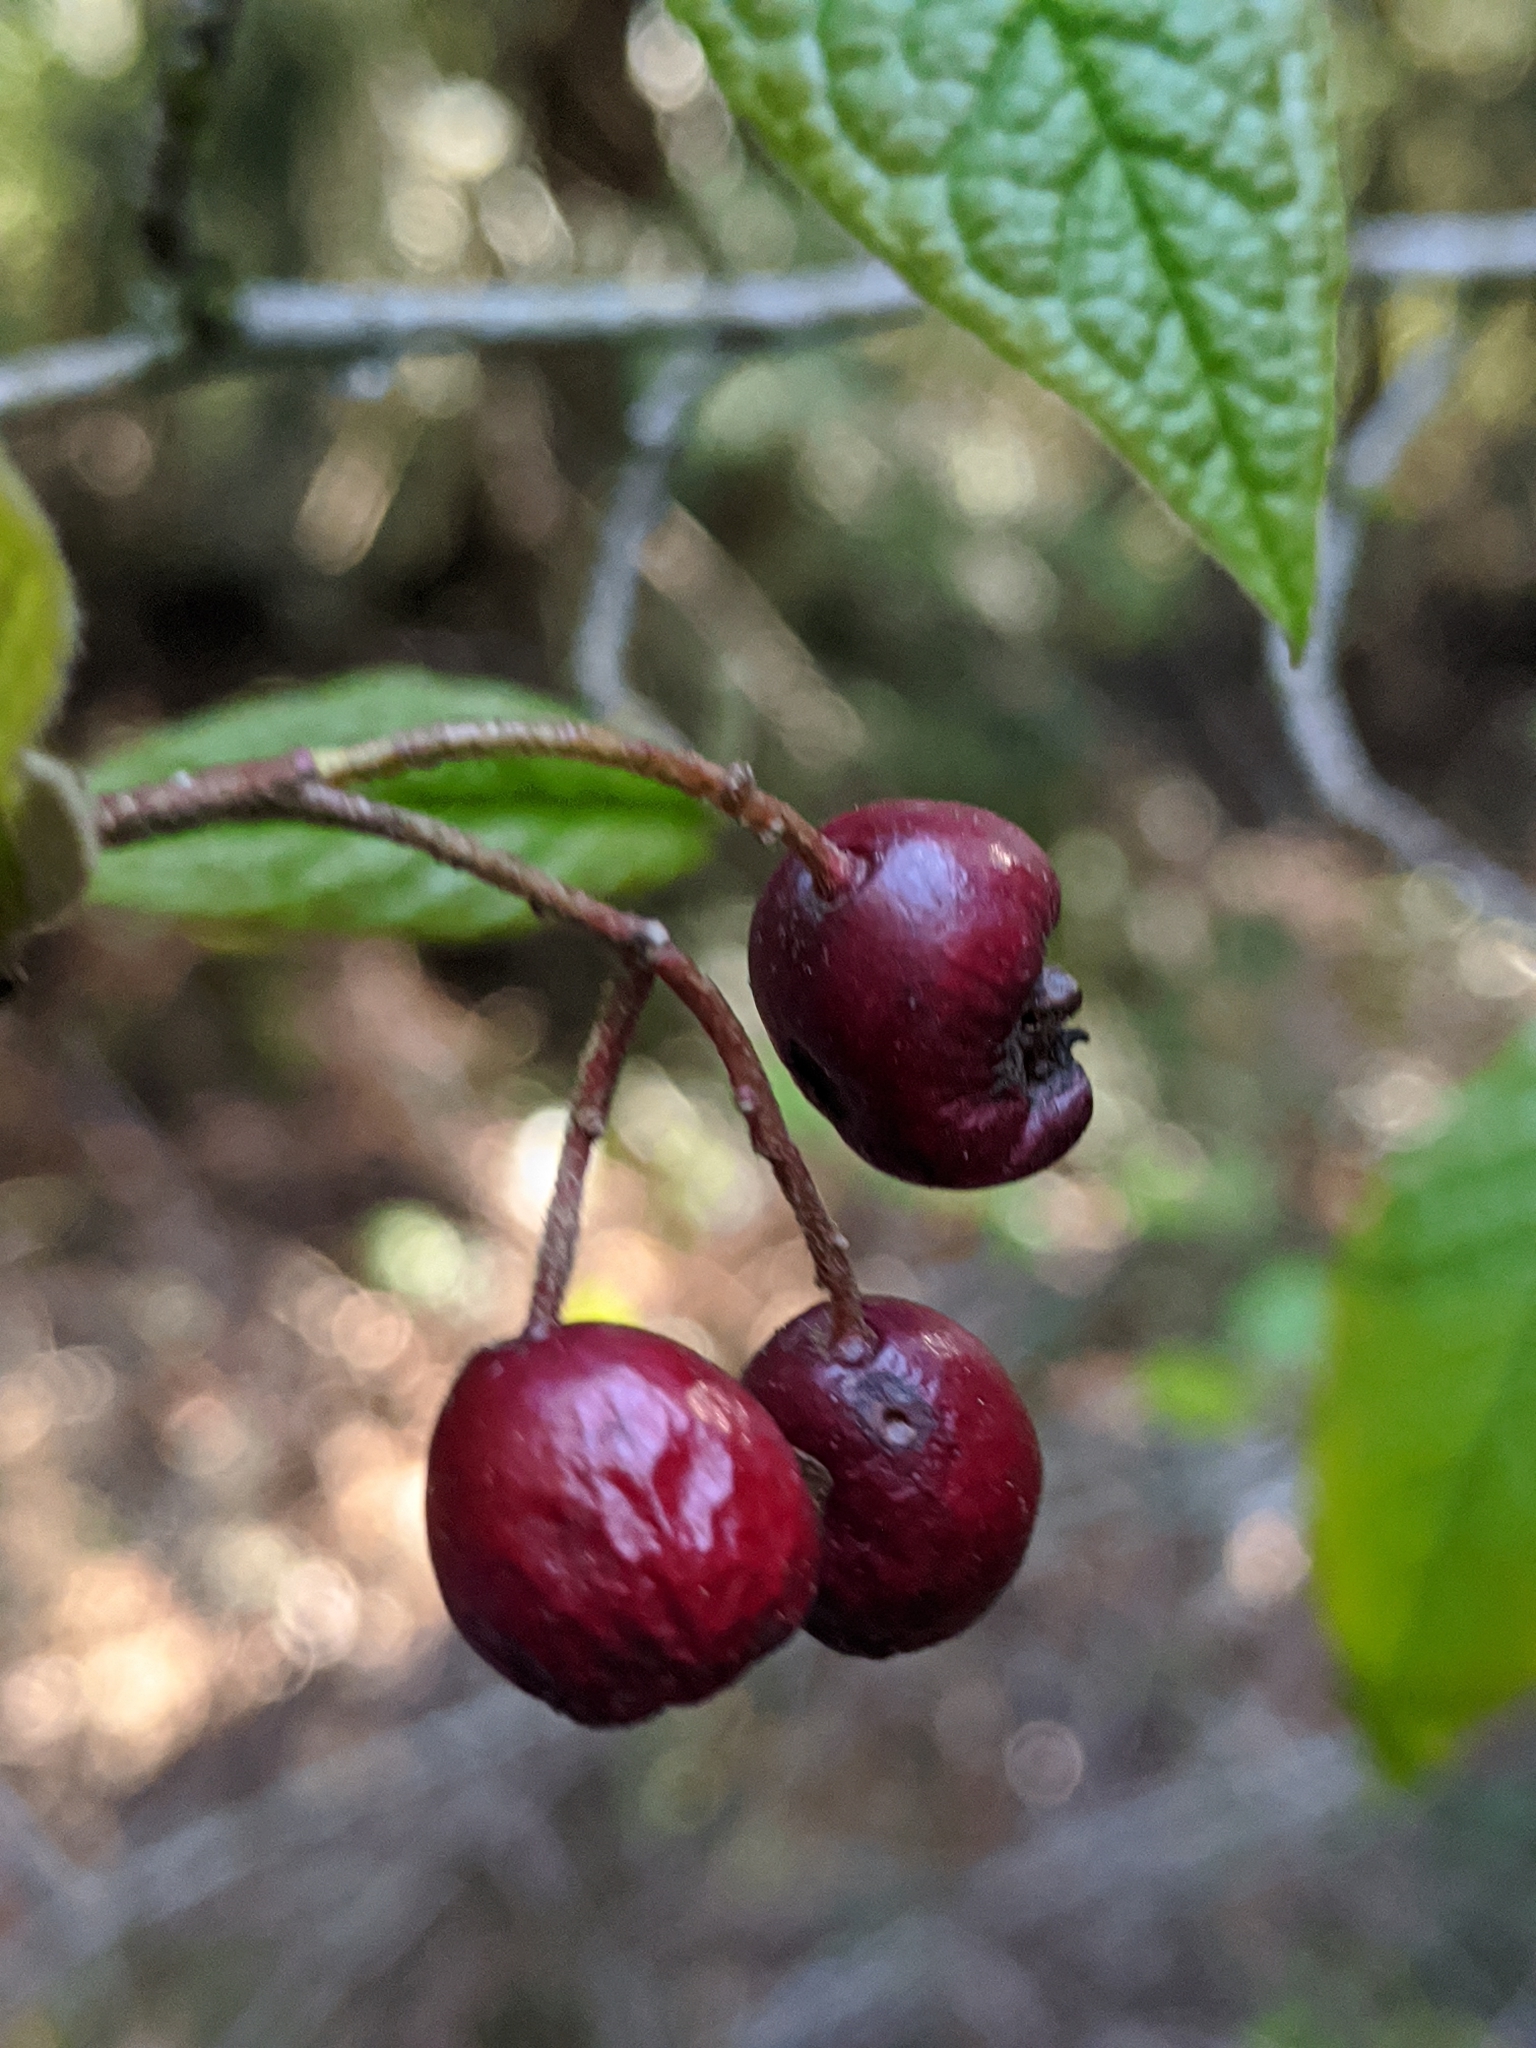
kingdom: Plantae
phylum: Tracheophyta
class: Magnoliopsida
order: Rosales
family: Rosaceae
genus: Cotoneaster
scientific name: Cotoneaster bullatus
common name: Hollyberry cotoneaster
